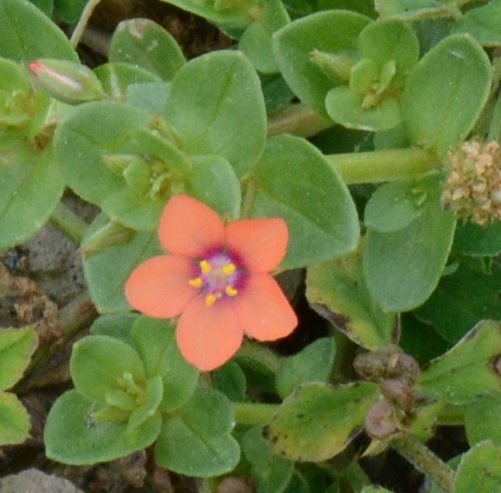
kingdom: Plantae
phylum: Tracheophyta
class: Magnoliopsida
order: Ericales
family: Primulaceae
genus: Lysimachia
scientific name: Lysimachia arvensis
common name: Scarlet pimpernel
